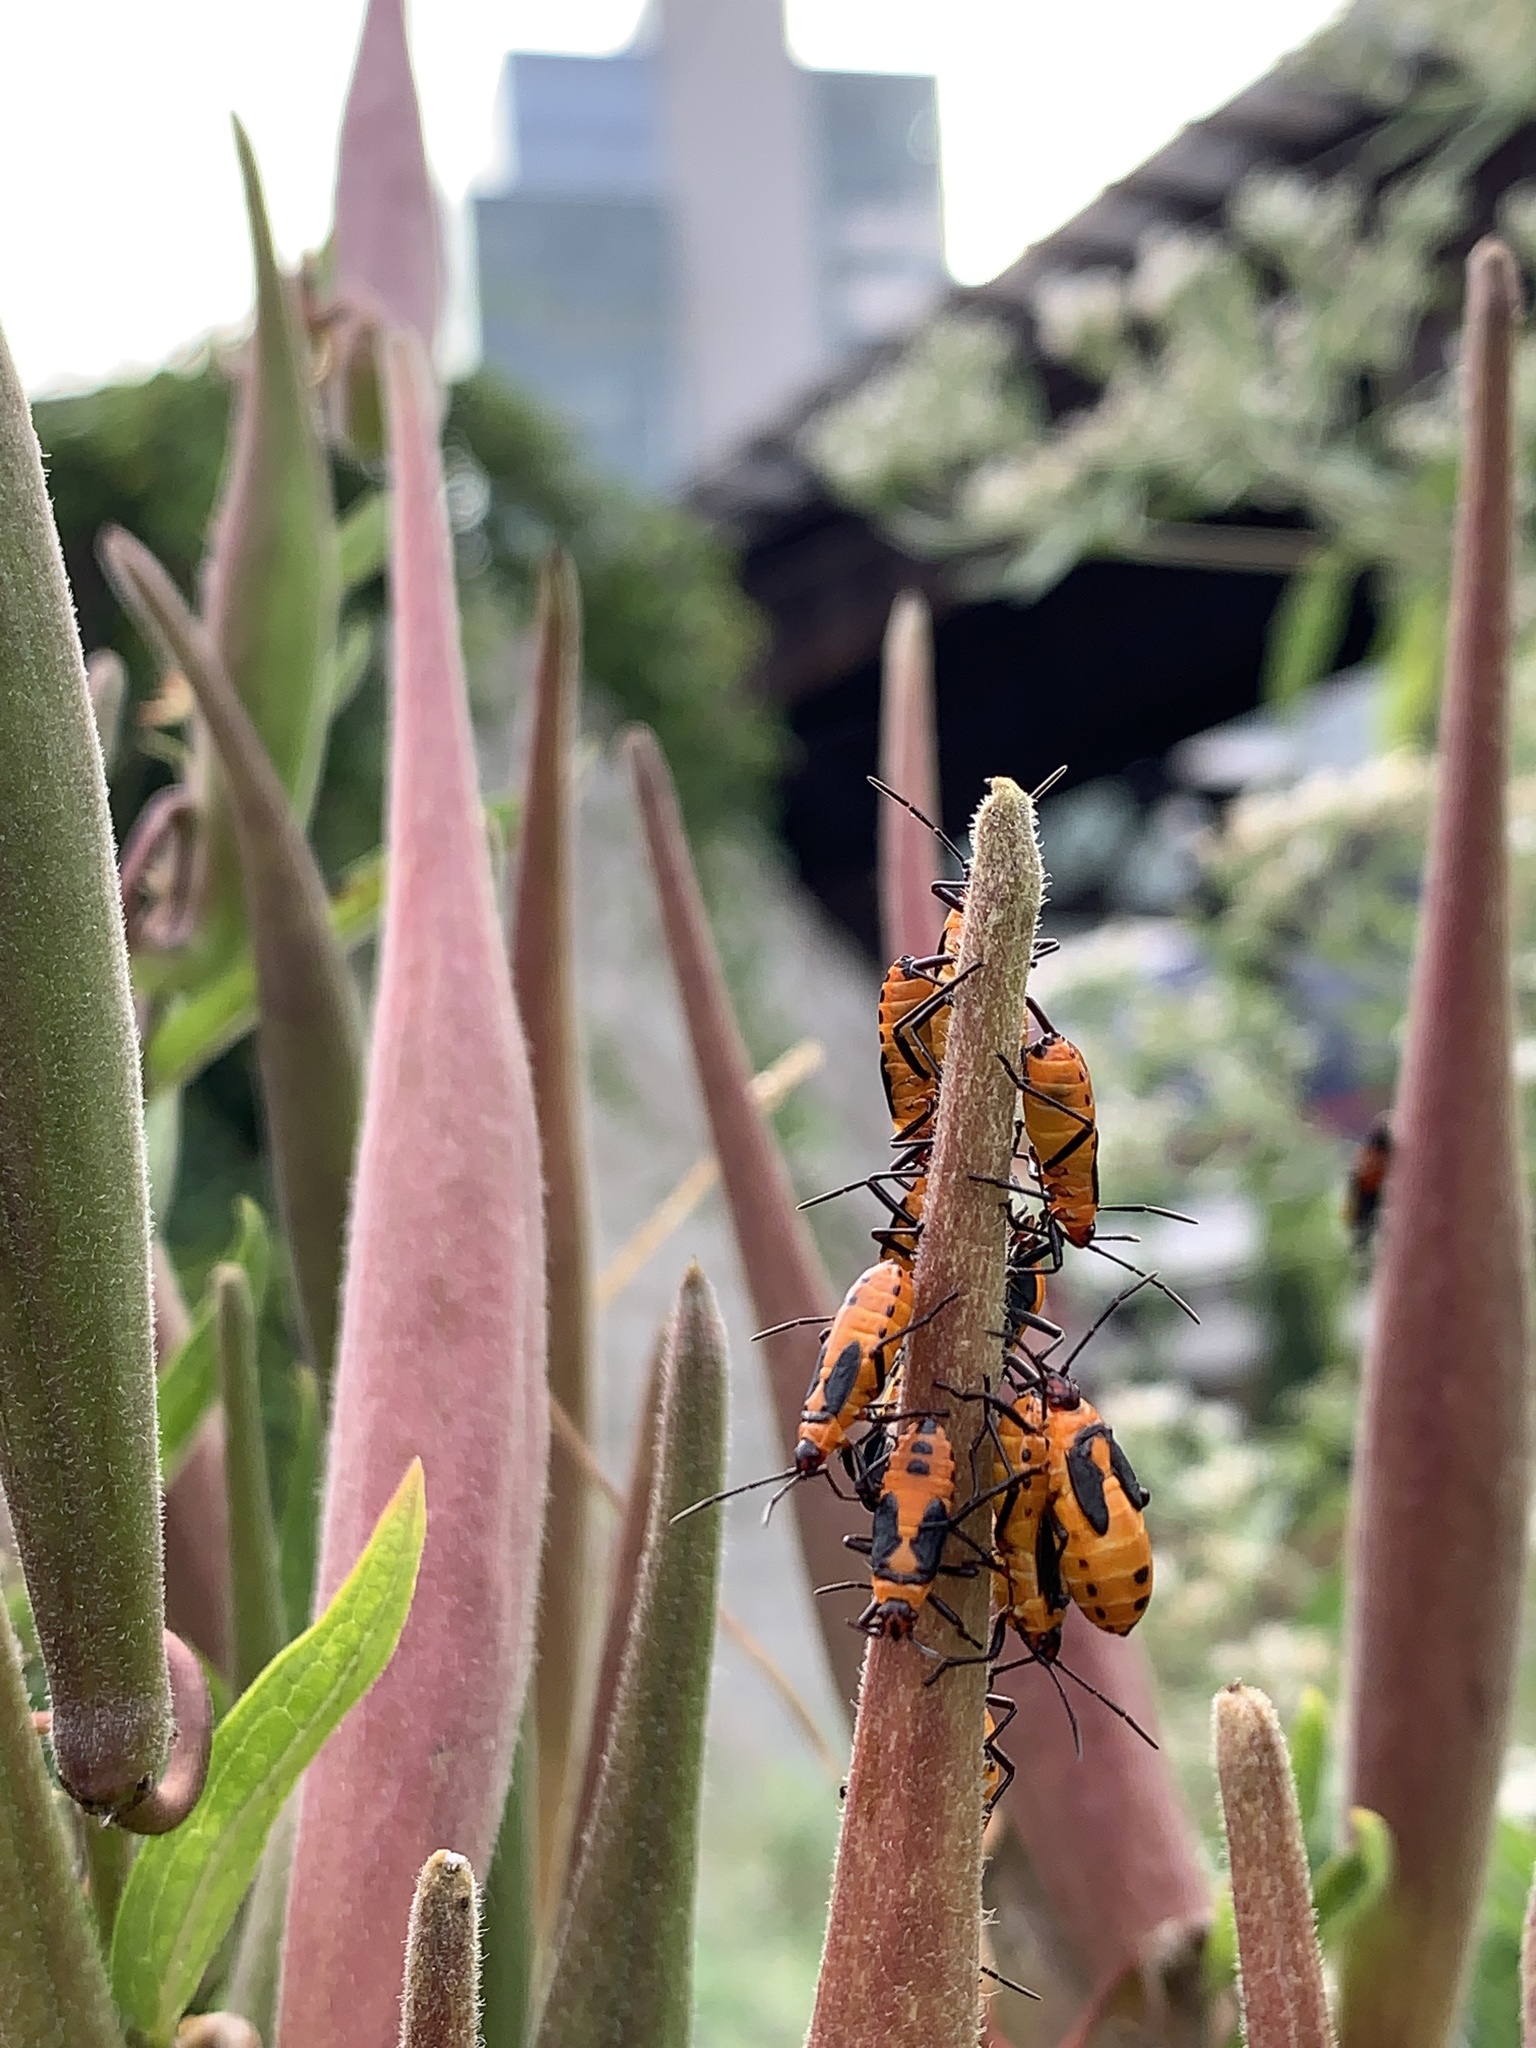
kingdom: Animalia
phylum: Arthropoda
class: Insecta
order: Hemiptera
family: Lygaeidae
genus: Oncopeltus
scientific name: Oncopeltus fasciatus
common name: Large milkweed bug
